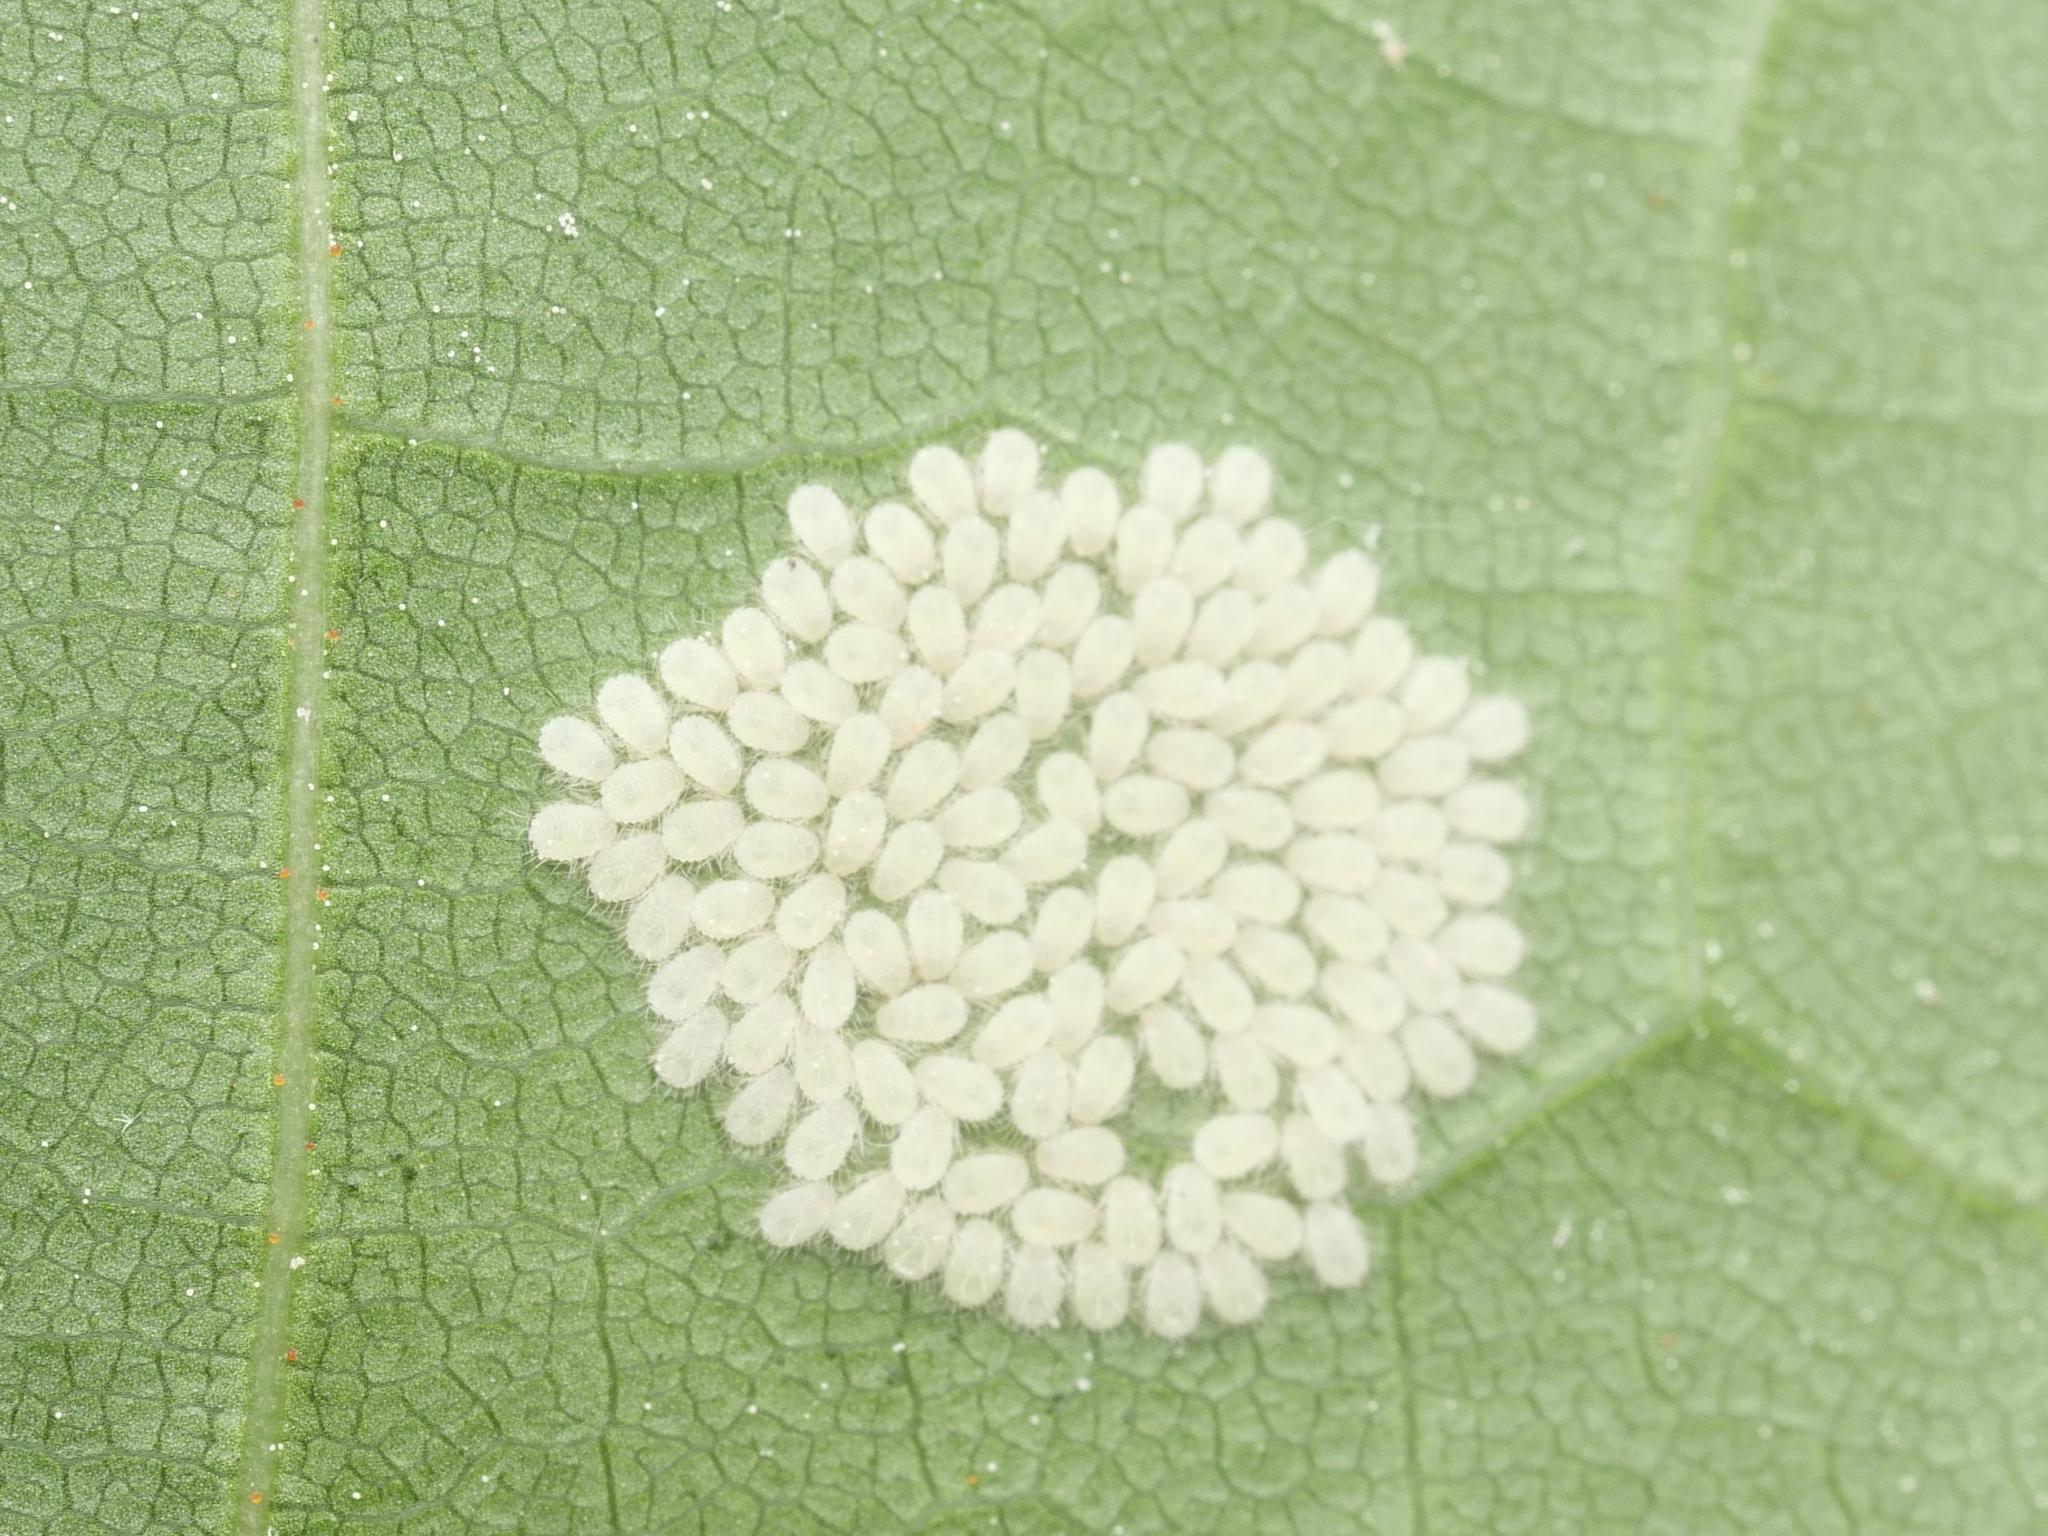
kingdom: Animalia
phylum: Arthropoda
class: Insecta
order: Hemiptera
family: Aphididae
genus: Periphyllus
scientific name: Periphyllus
